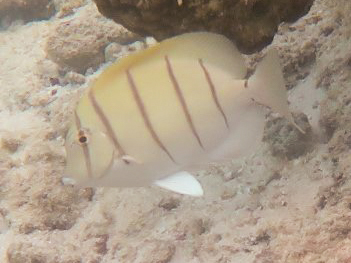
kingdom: Animalia
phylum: Chordata
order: Perciformes
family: Acanthuridae
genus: Acanthurus
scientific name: Acanthurus triostegus
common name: Convict surgeonfish
